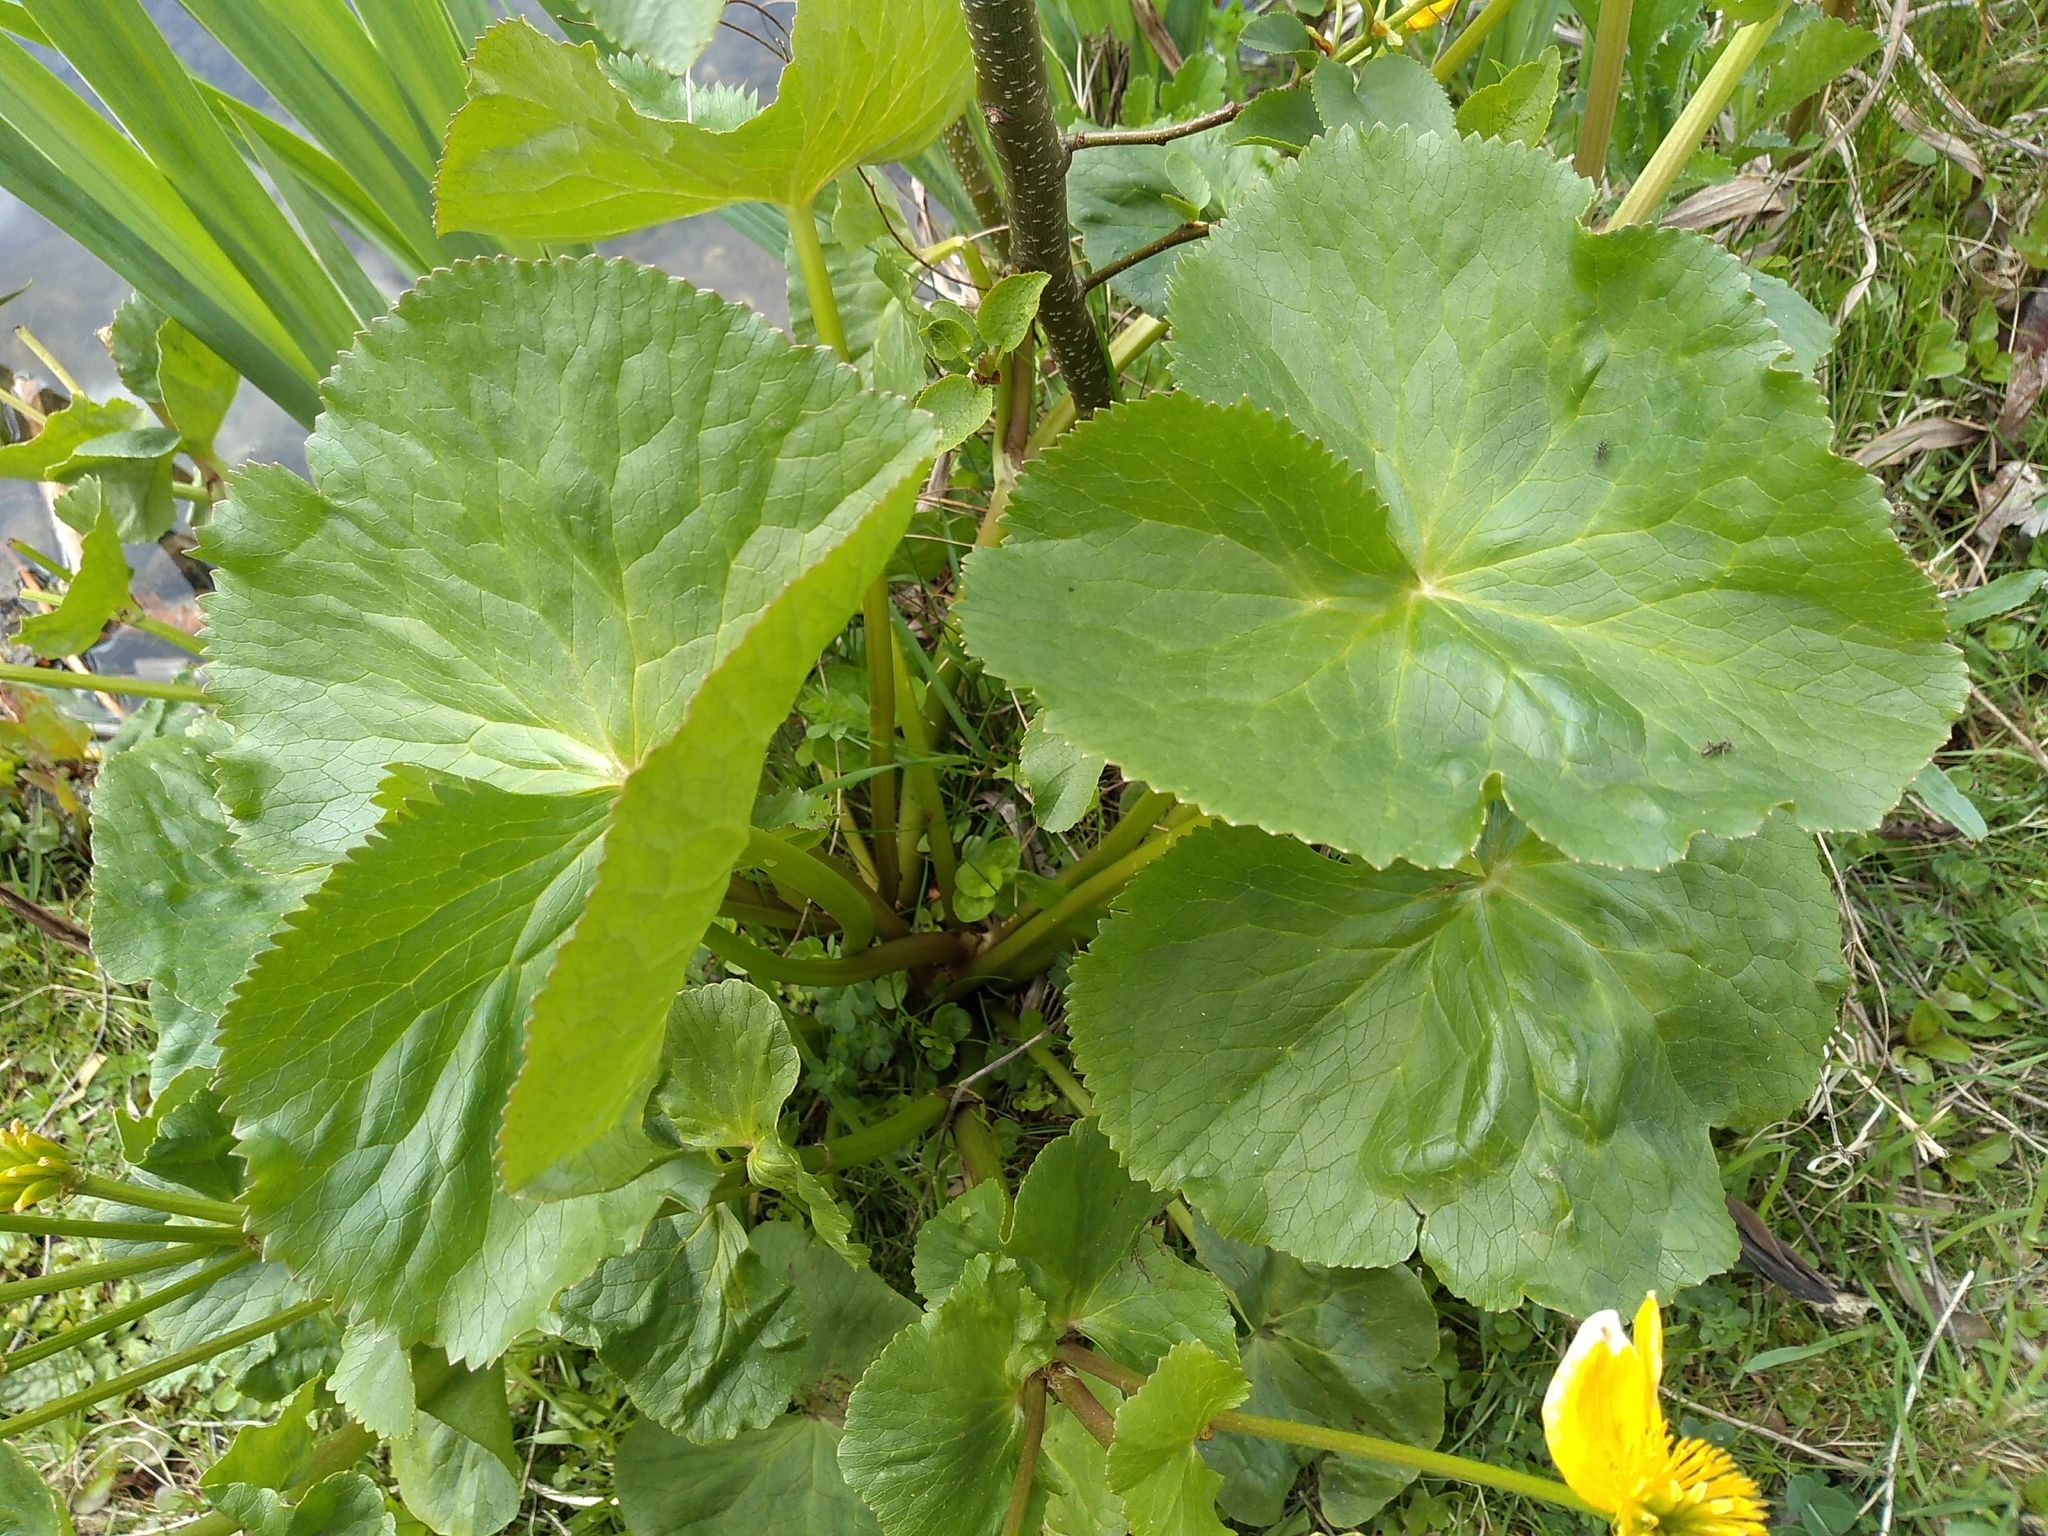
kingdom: Plantae
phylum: Tracheophyta
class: Magnoliopsida
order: Ranunculales
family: Ranunculaceae
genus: Caltha
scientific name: Caltha palustris
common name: Marsh marigold
